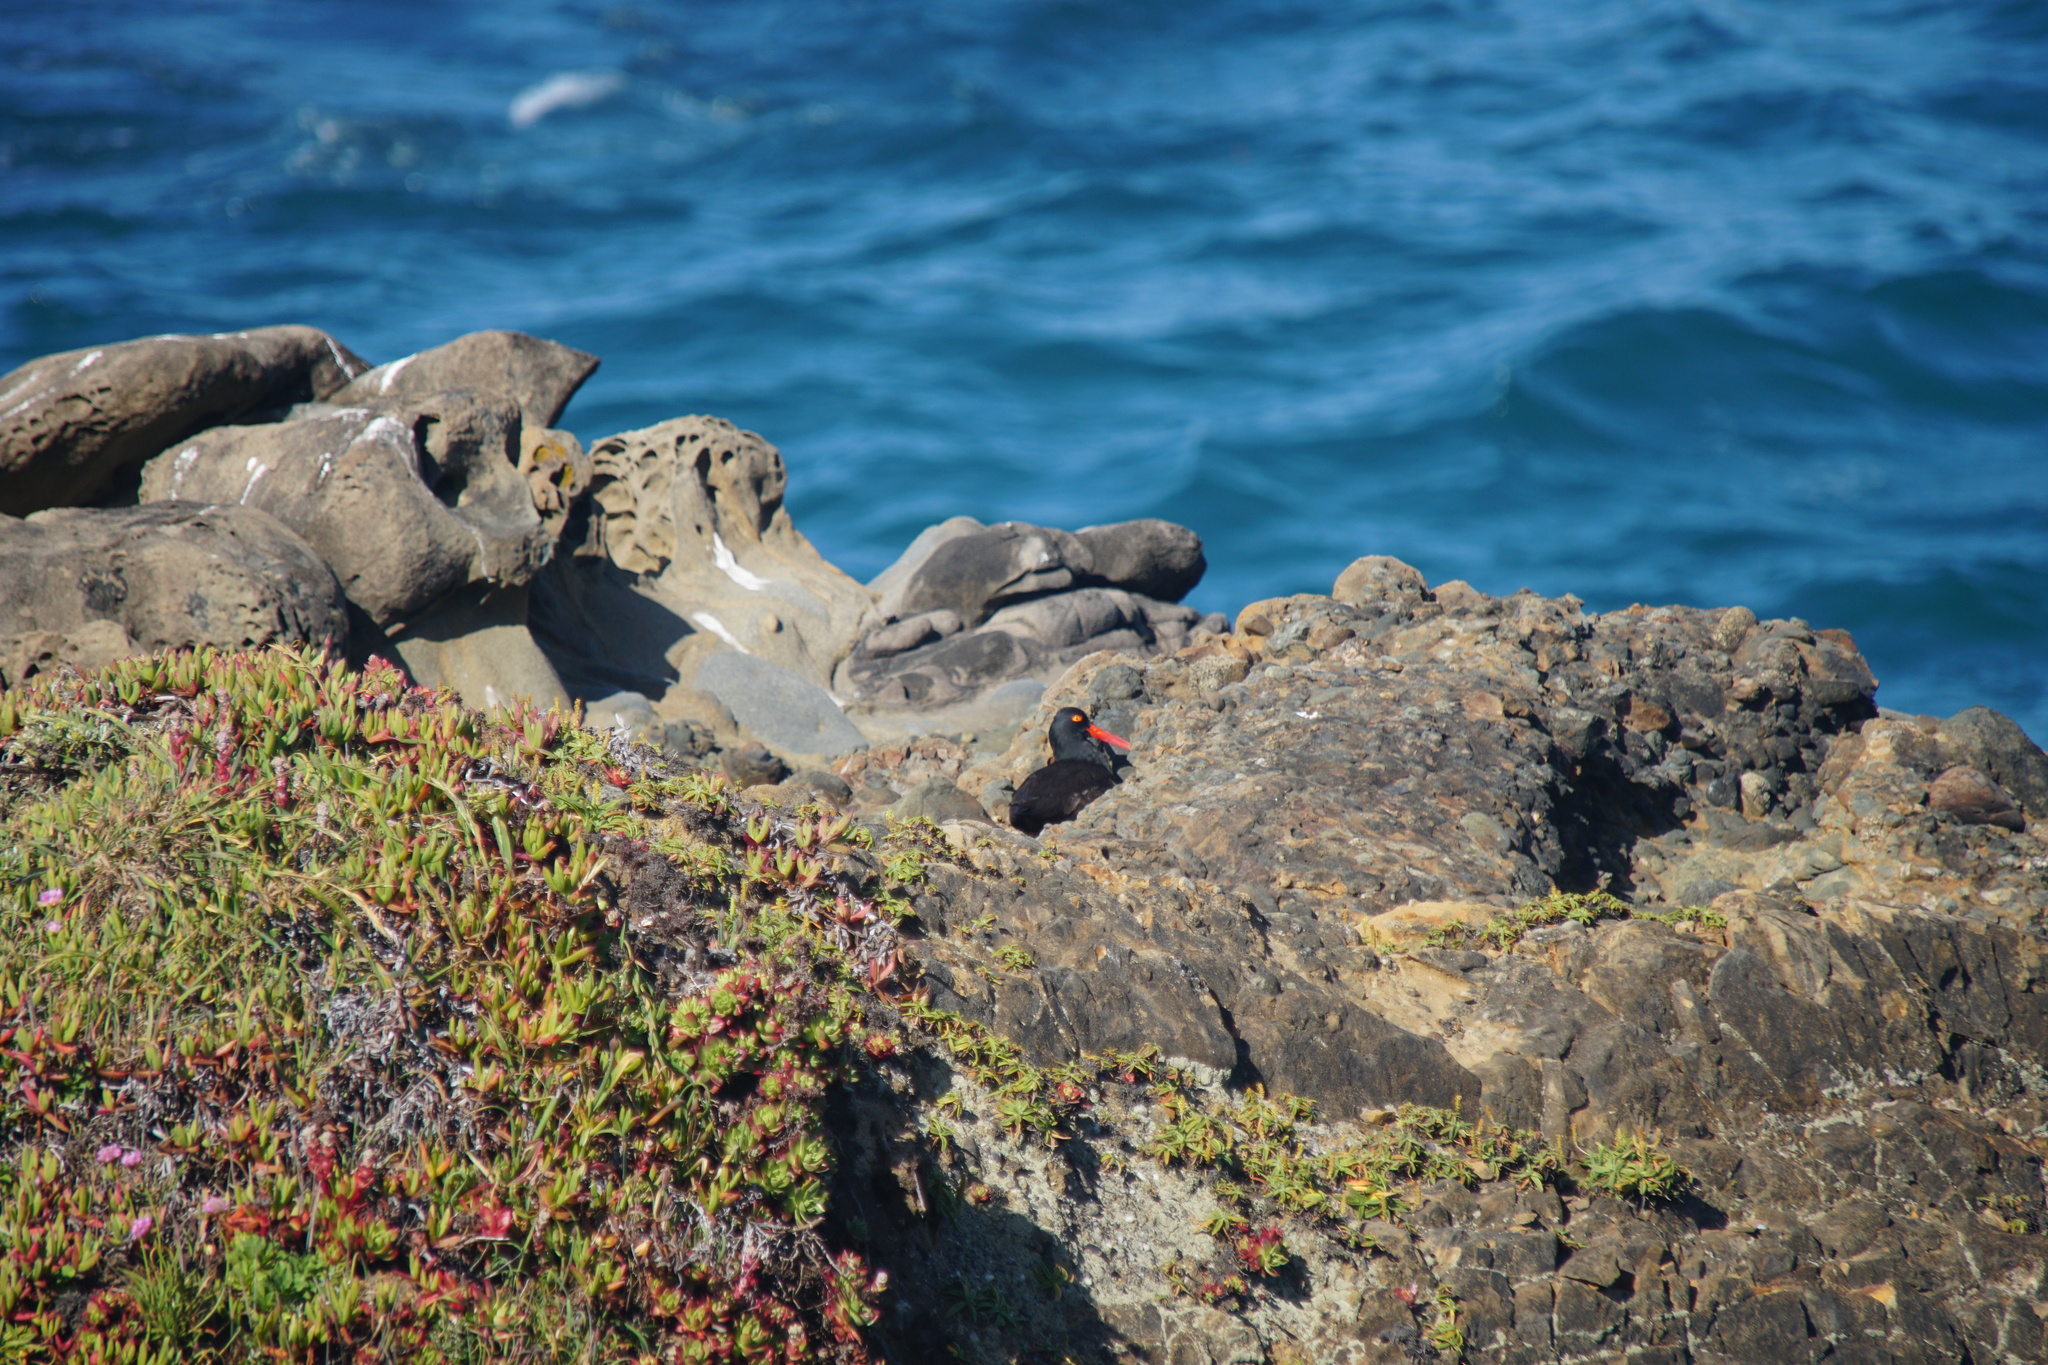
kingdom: Animalia
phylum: Chordata
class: Aves
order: Charadriiformes
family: Haematopodidae
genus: Haematopus
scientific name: Haematopus bachmani
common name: Black oystercatcher
